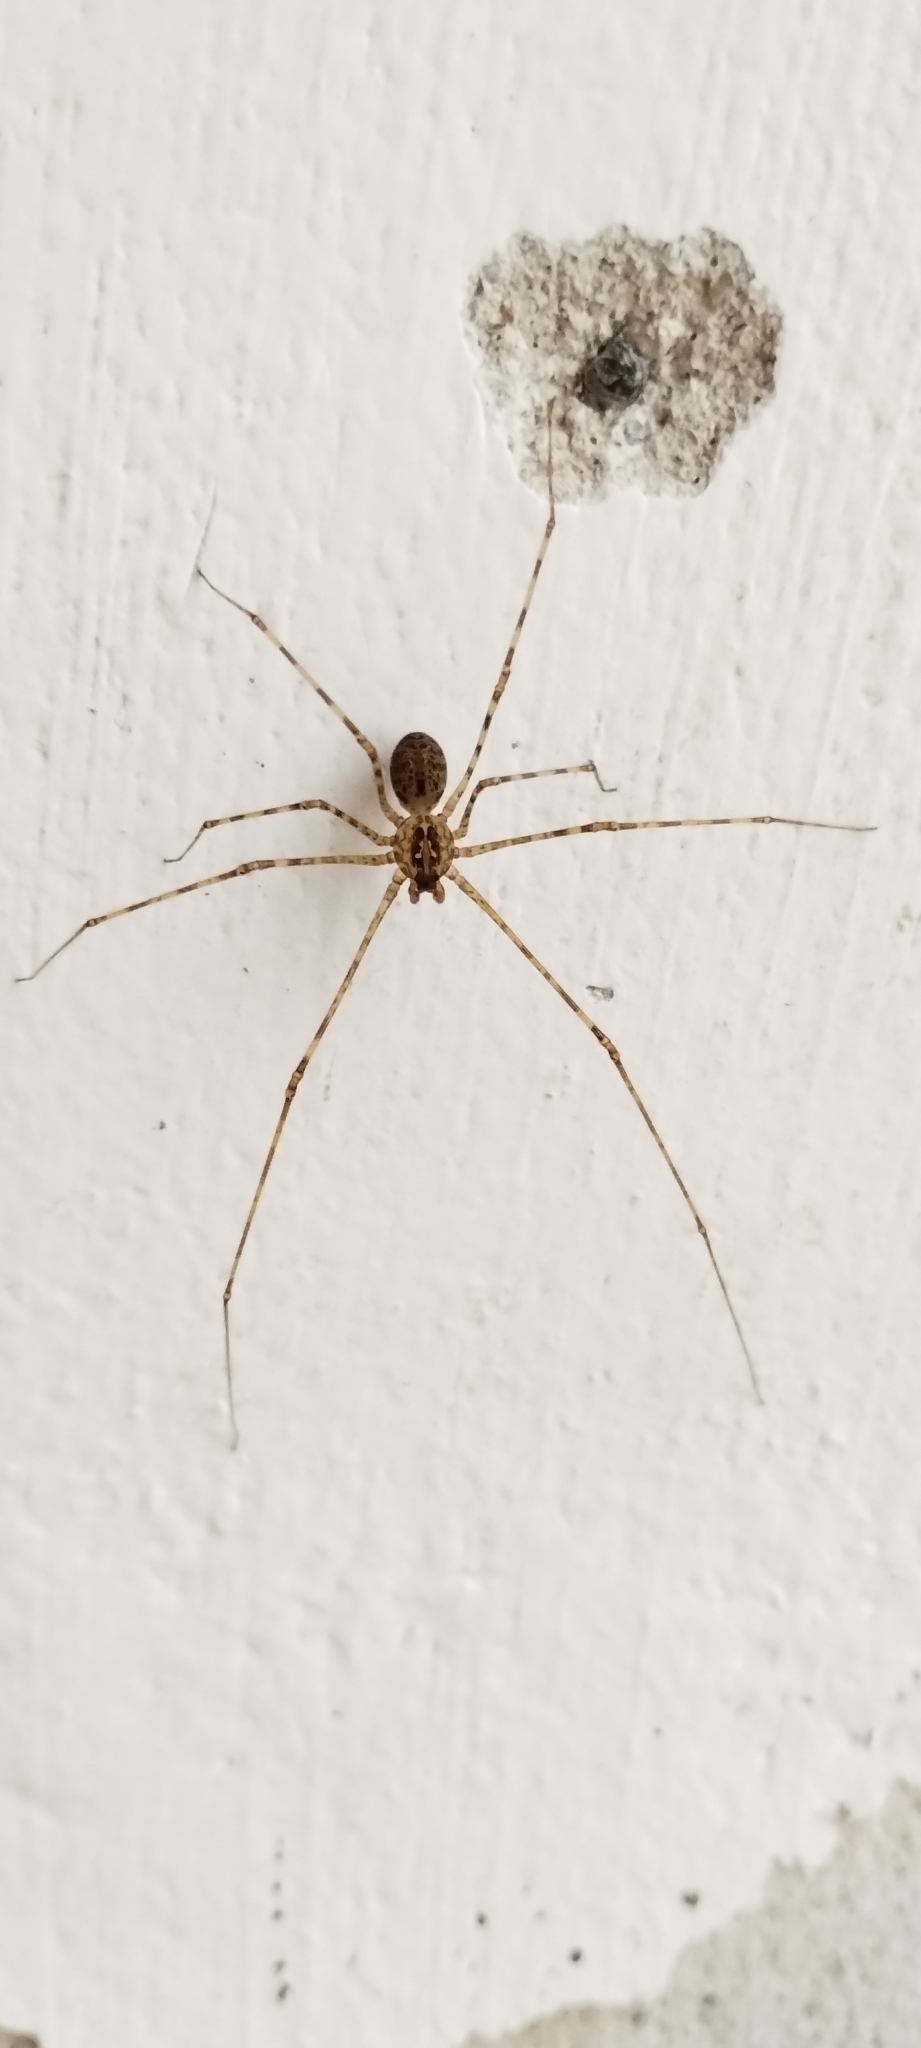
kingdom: Animalia
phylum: Arthropoda
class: Arachnida
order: Araneae
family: Scytodidae
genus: Scytodes
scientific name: Scytodes globula
